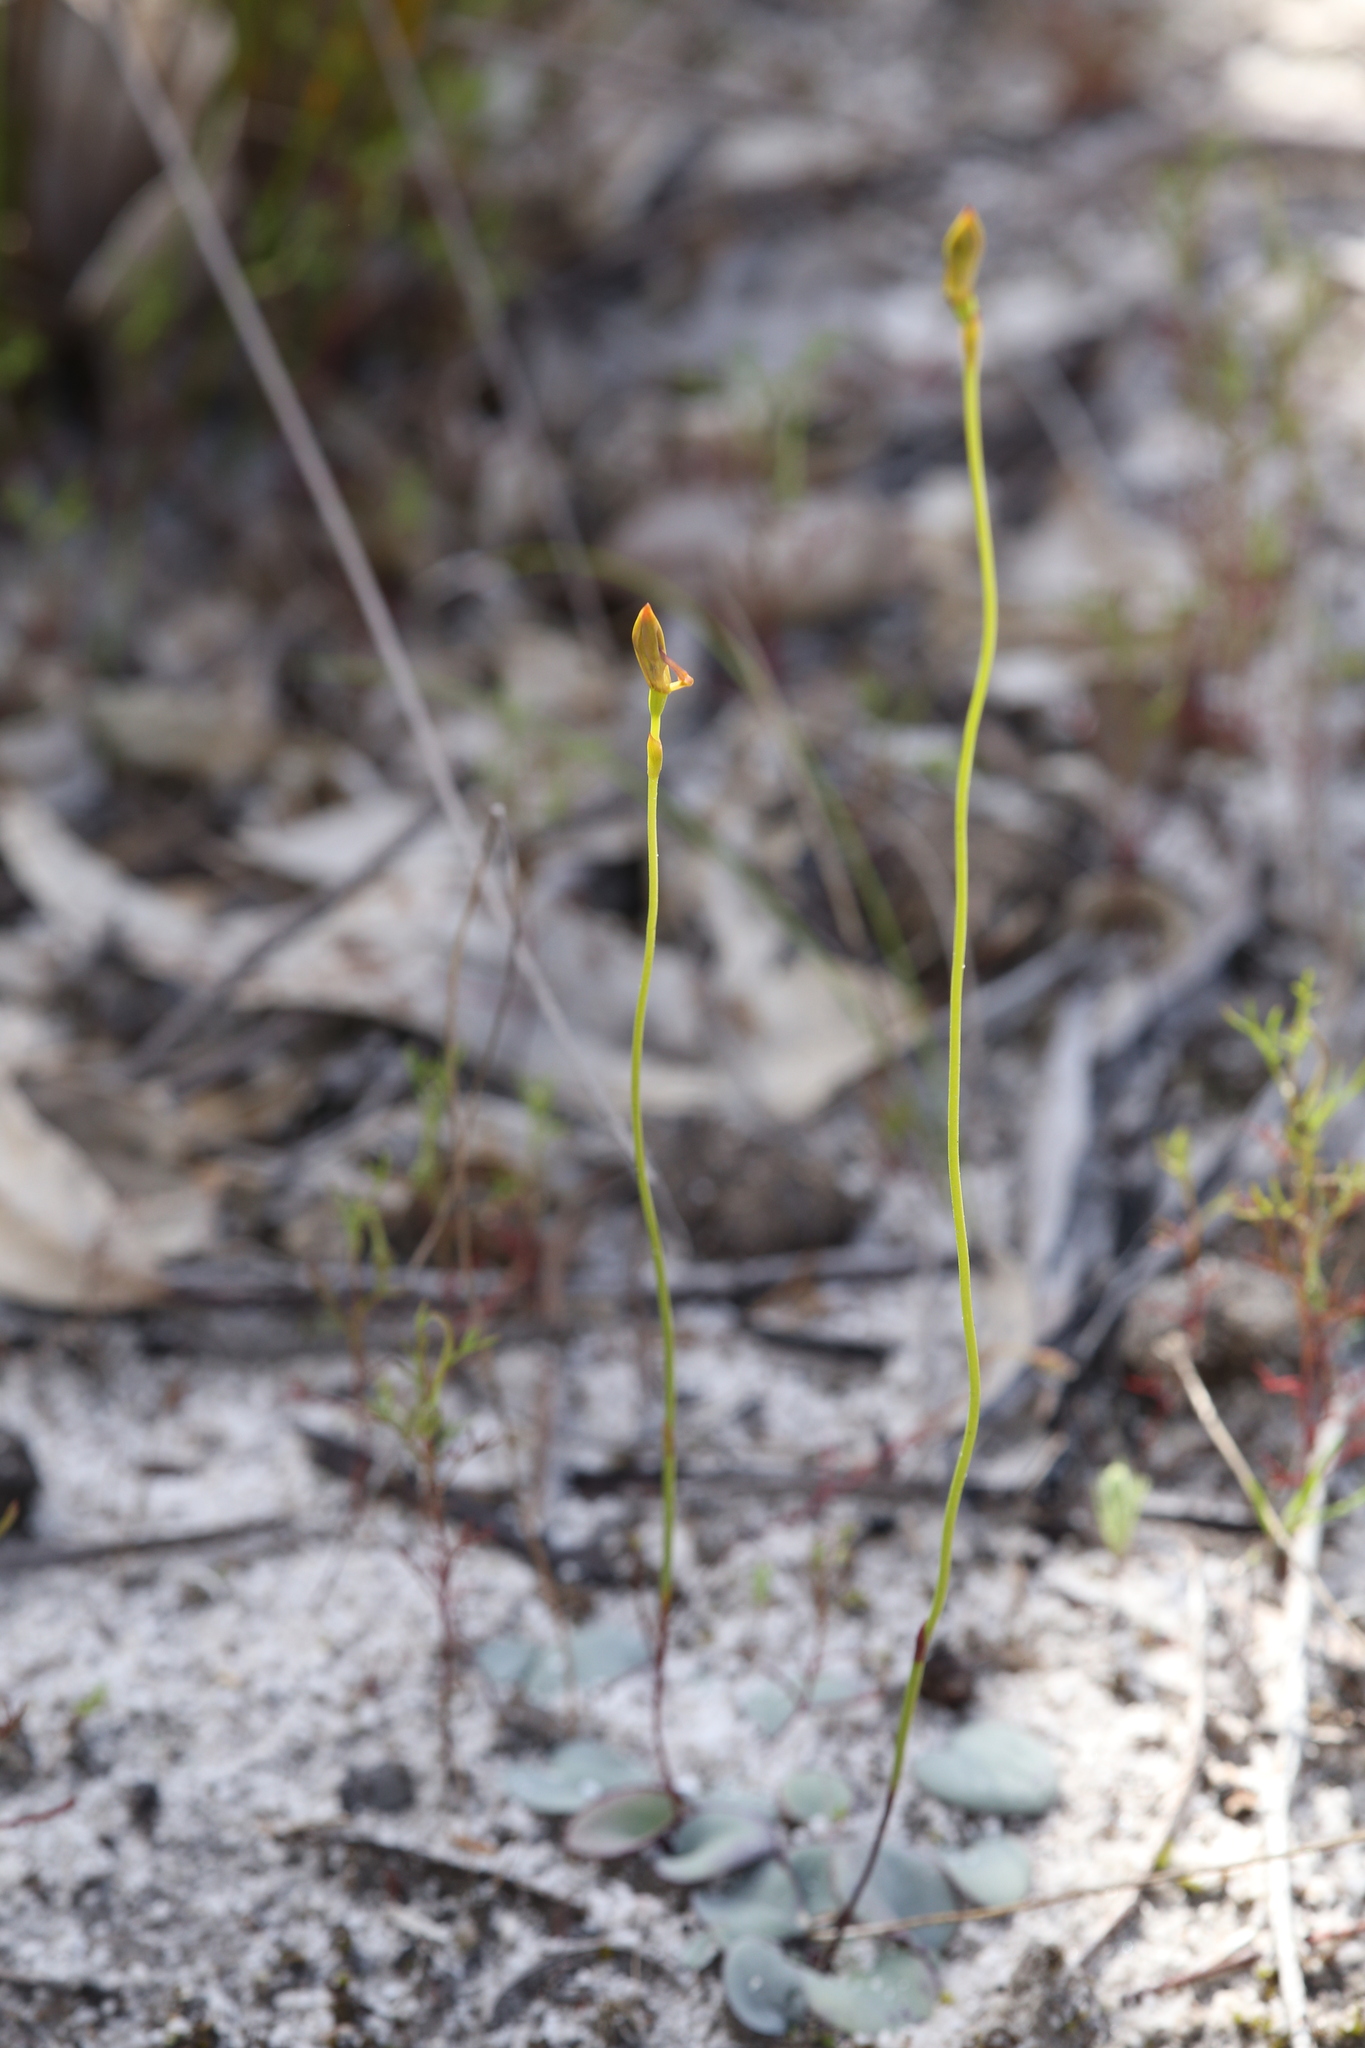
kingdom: Plantae
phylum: Tracheophyta
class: Liliopsida
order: Asparagales
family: Orchidaceae
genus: Drakaea
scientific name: Drakaea glyptodon
